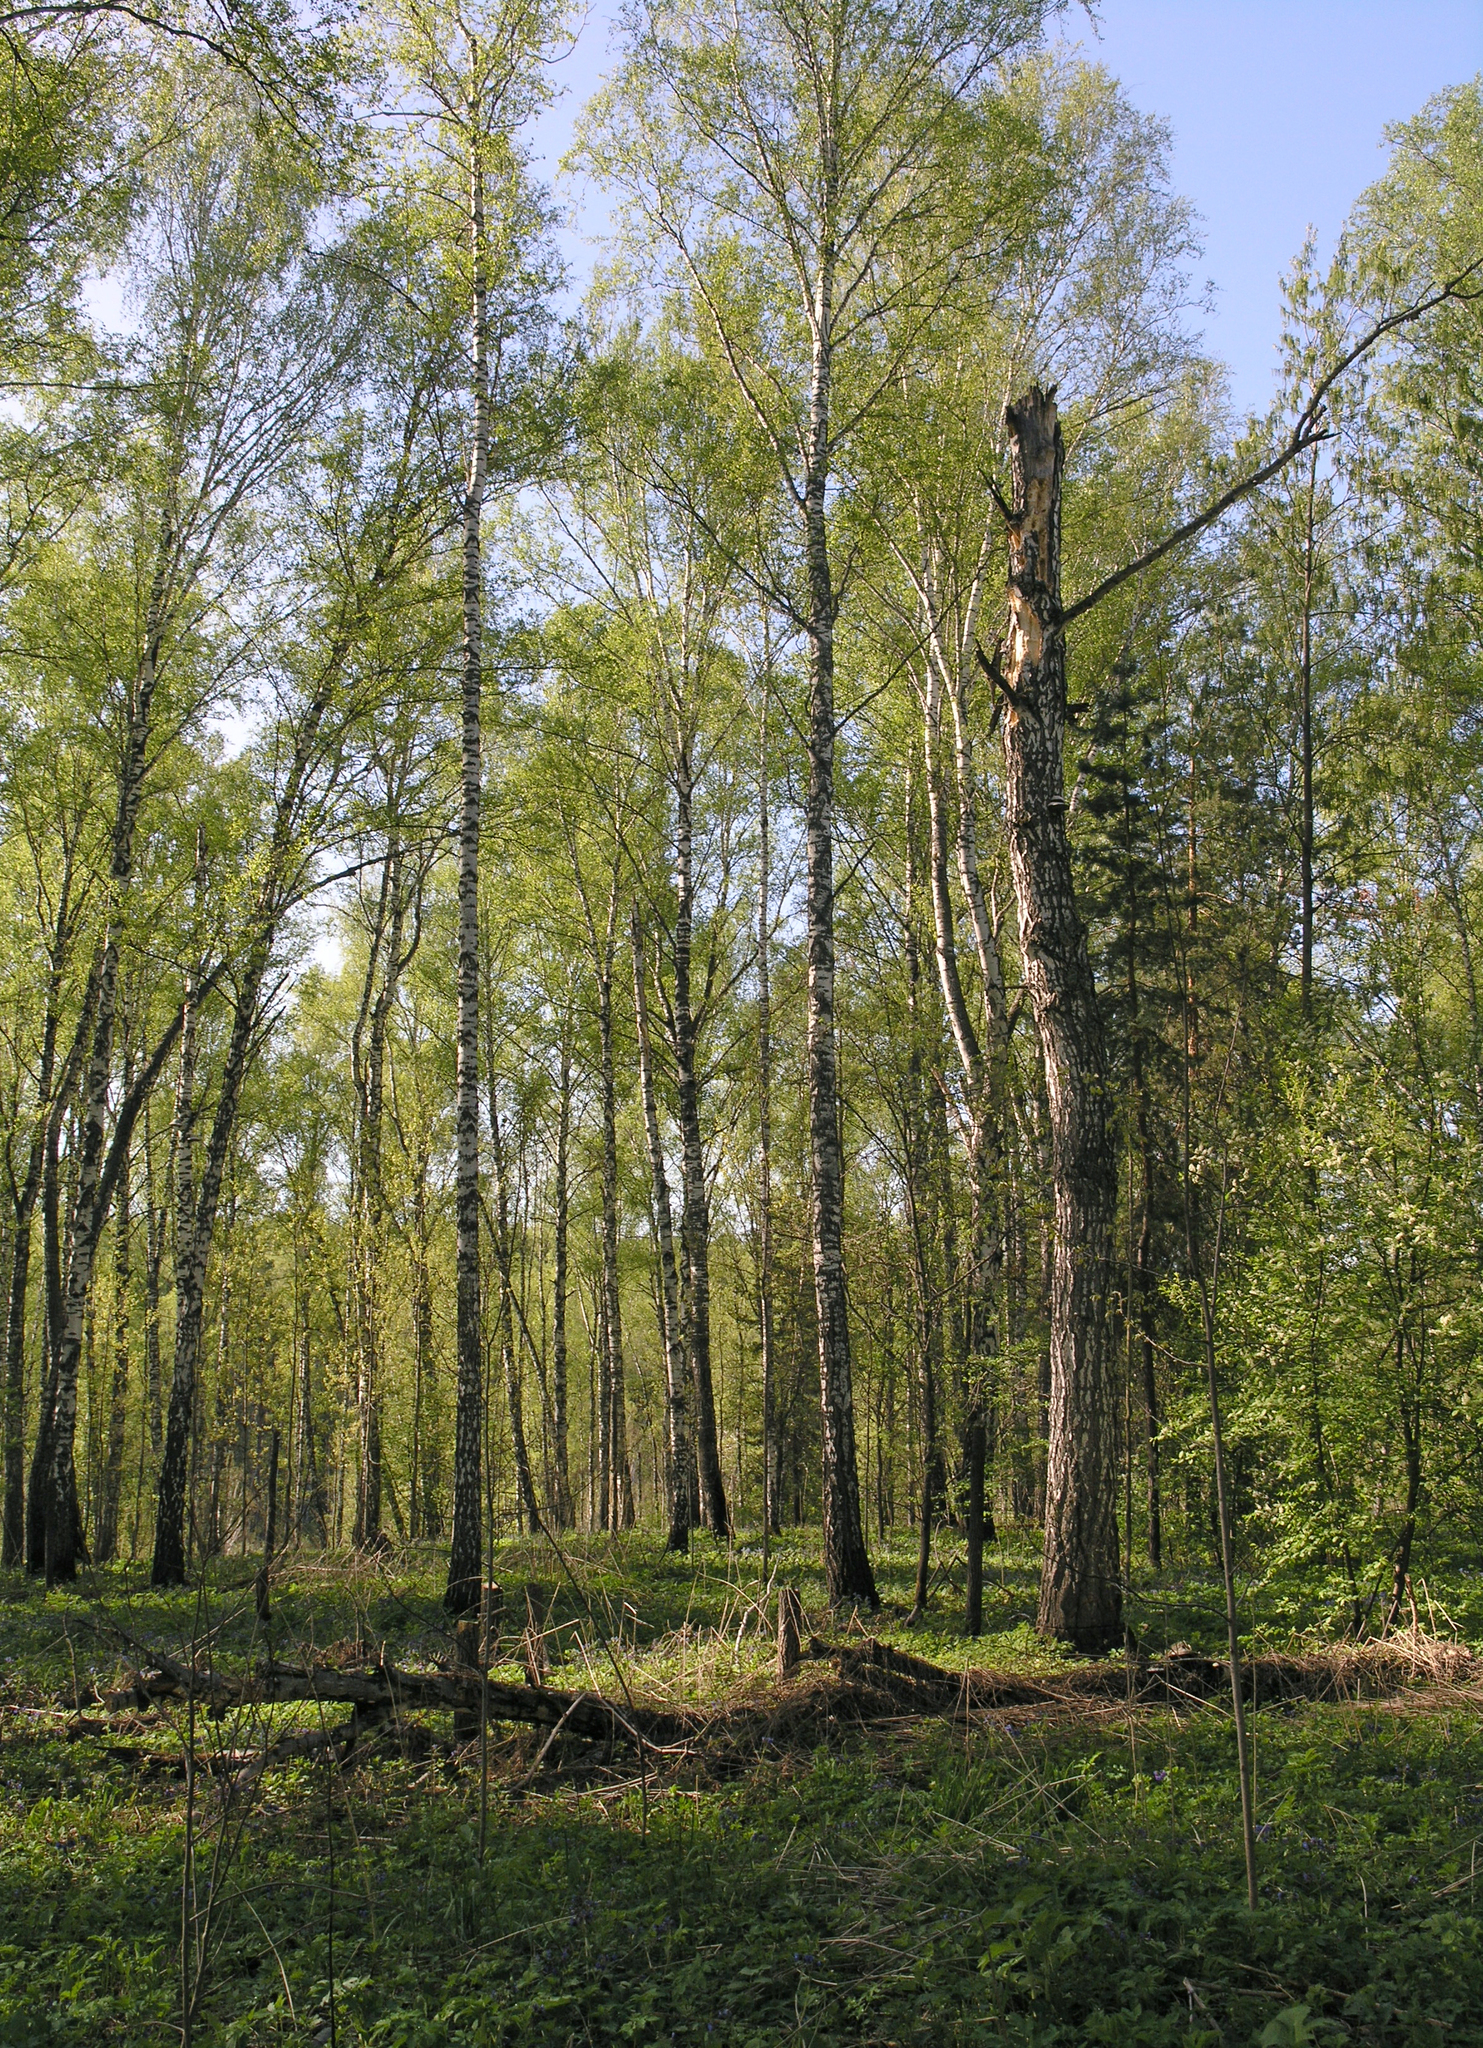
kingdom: Plantae
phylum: Tracheophyta
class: Magnoliopsida
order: Fagales
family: Betulaceae
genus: Betula
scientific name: Betula pendula
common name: Silver birch
